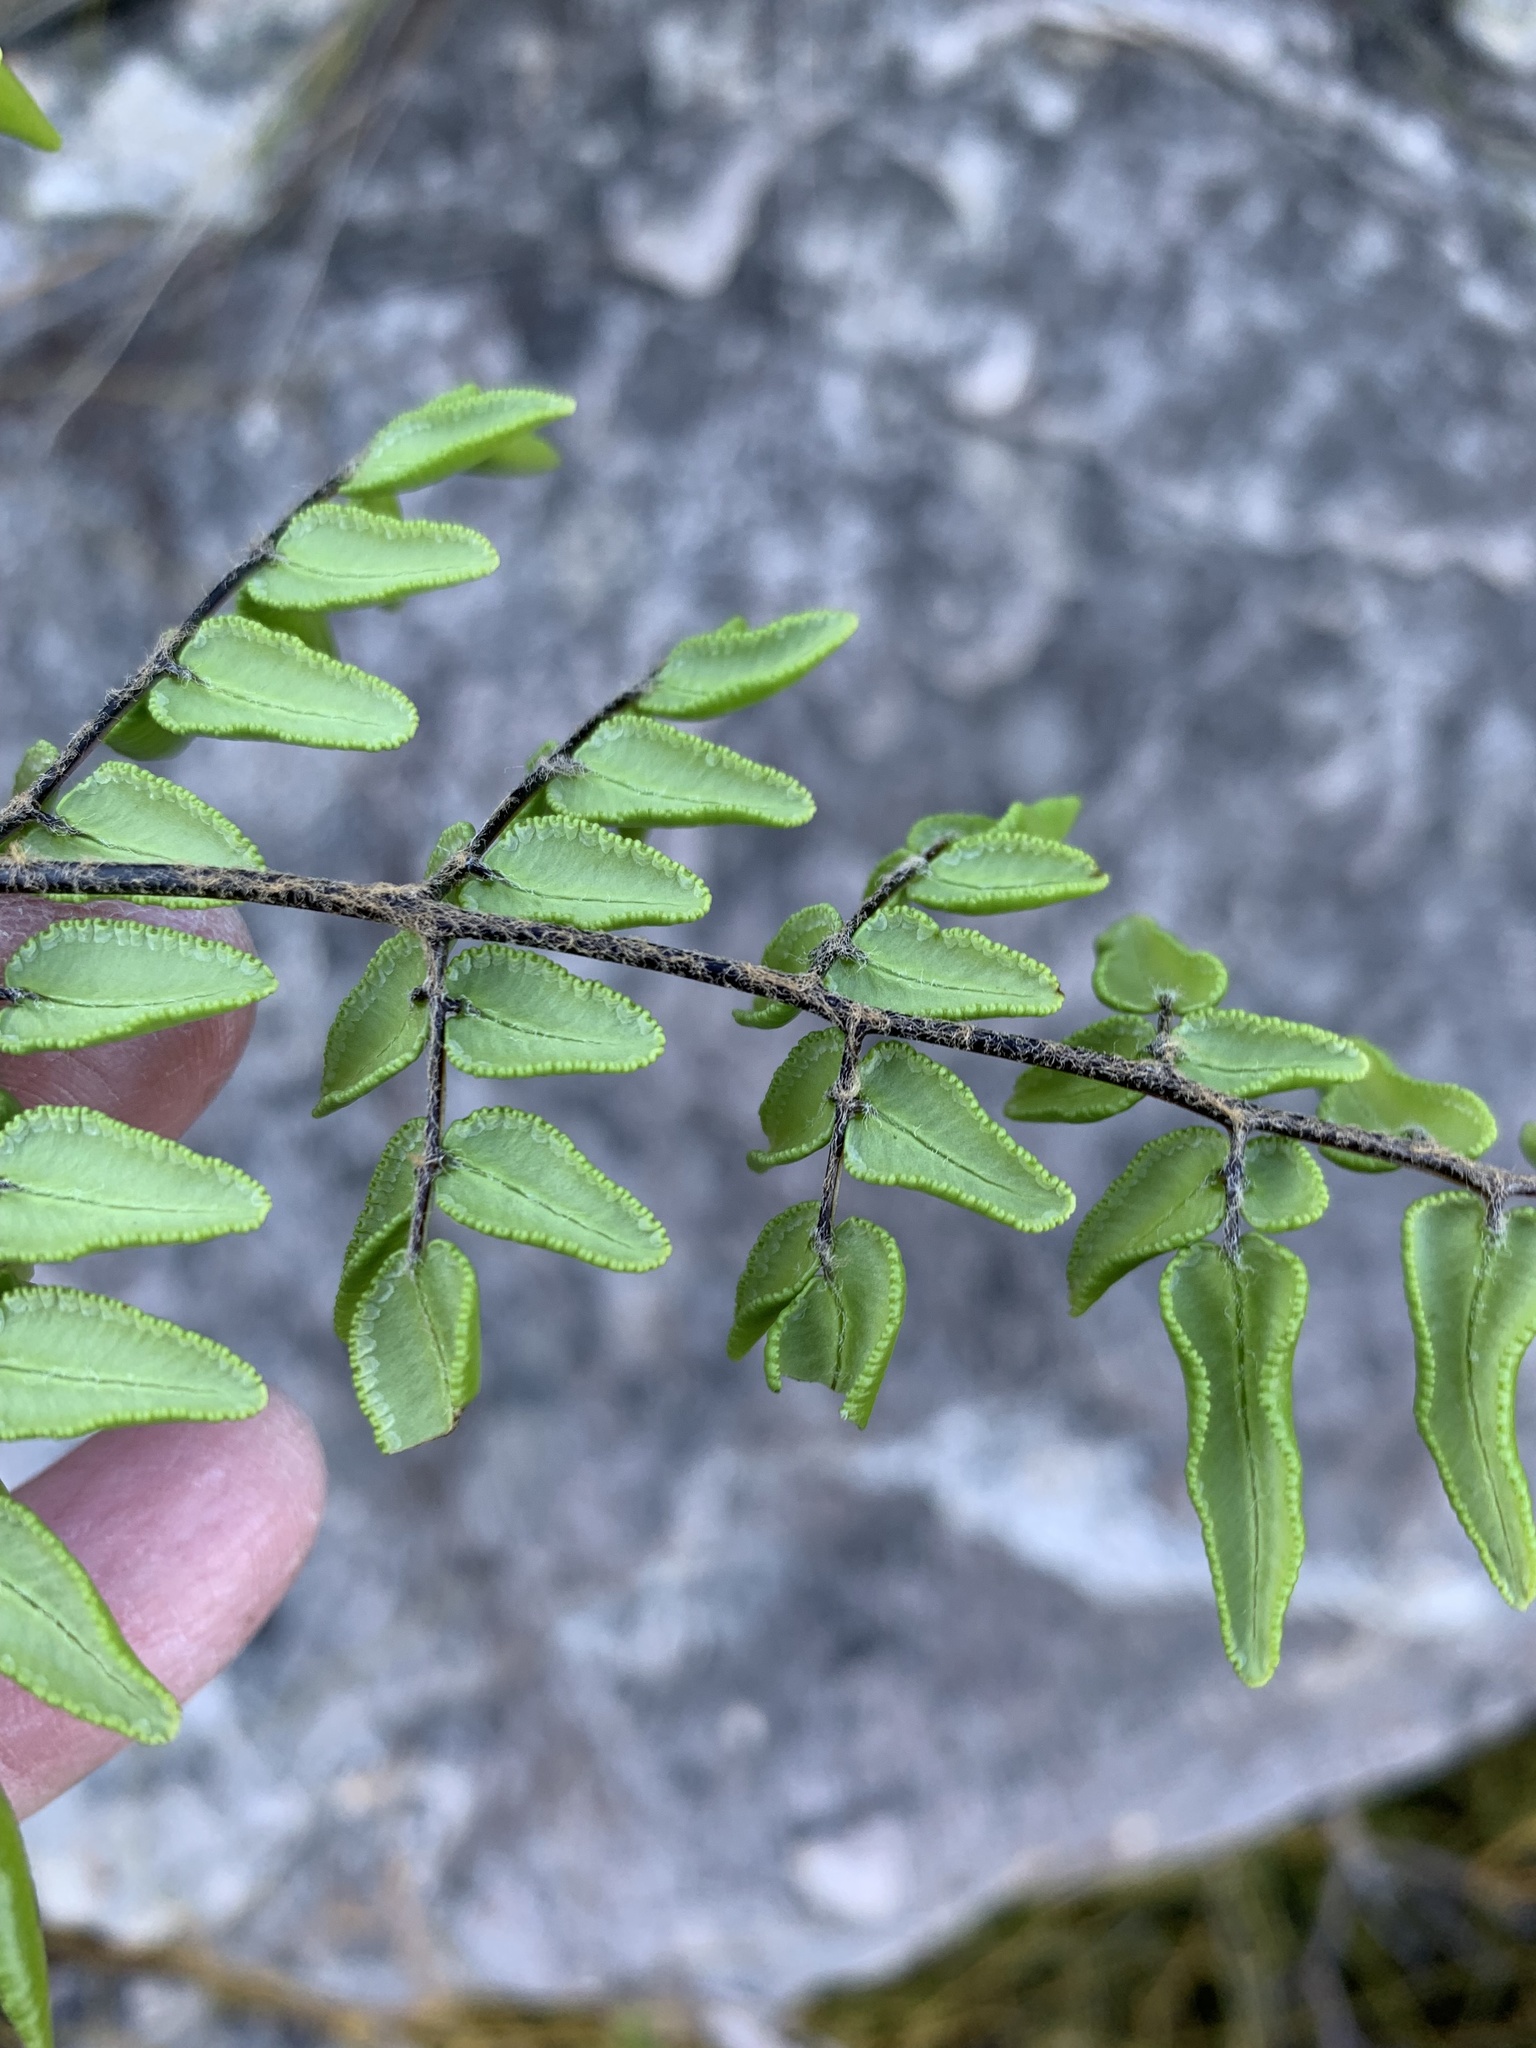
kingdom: Plantae
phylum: Tracheophyta
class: Polypodiopsida
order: Polypodiales
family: Pteridaceae
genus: Pellaea
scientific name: Pellaea pteroides
